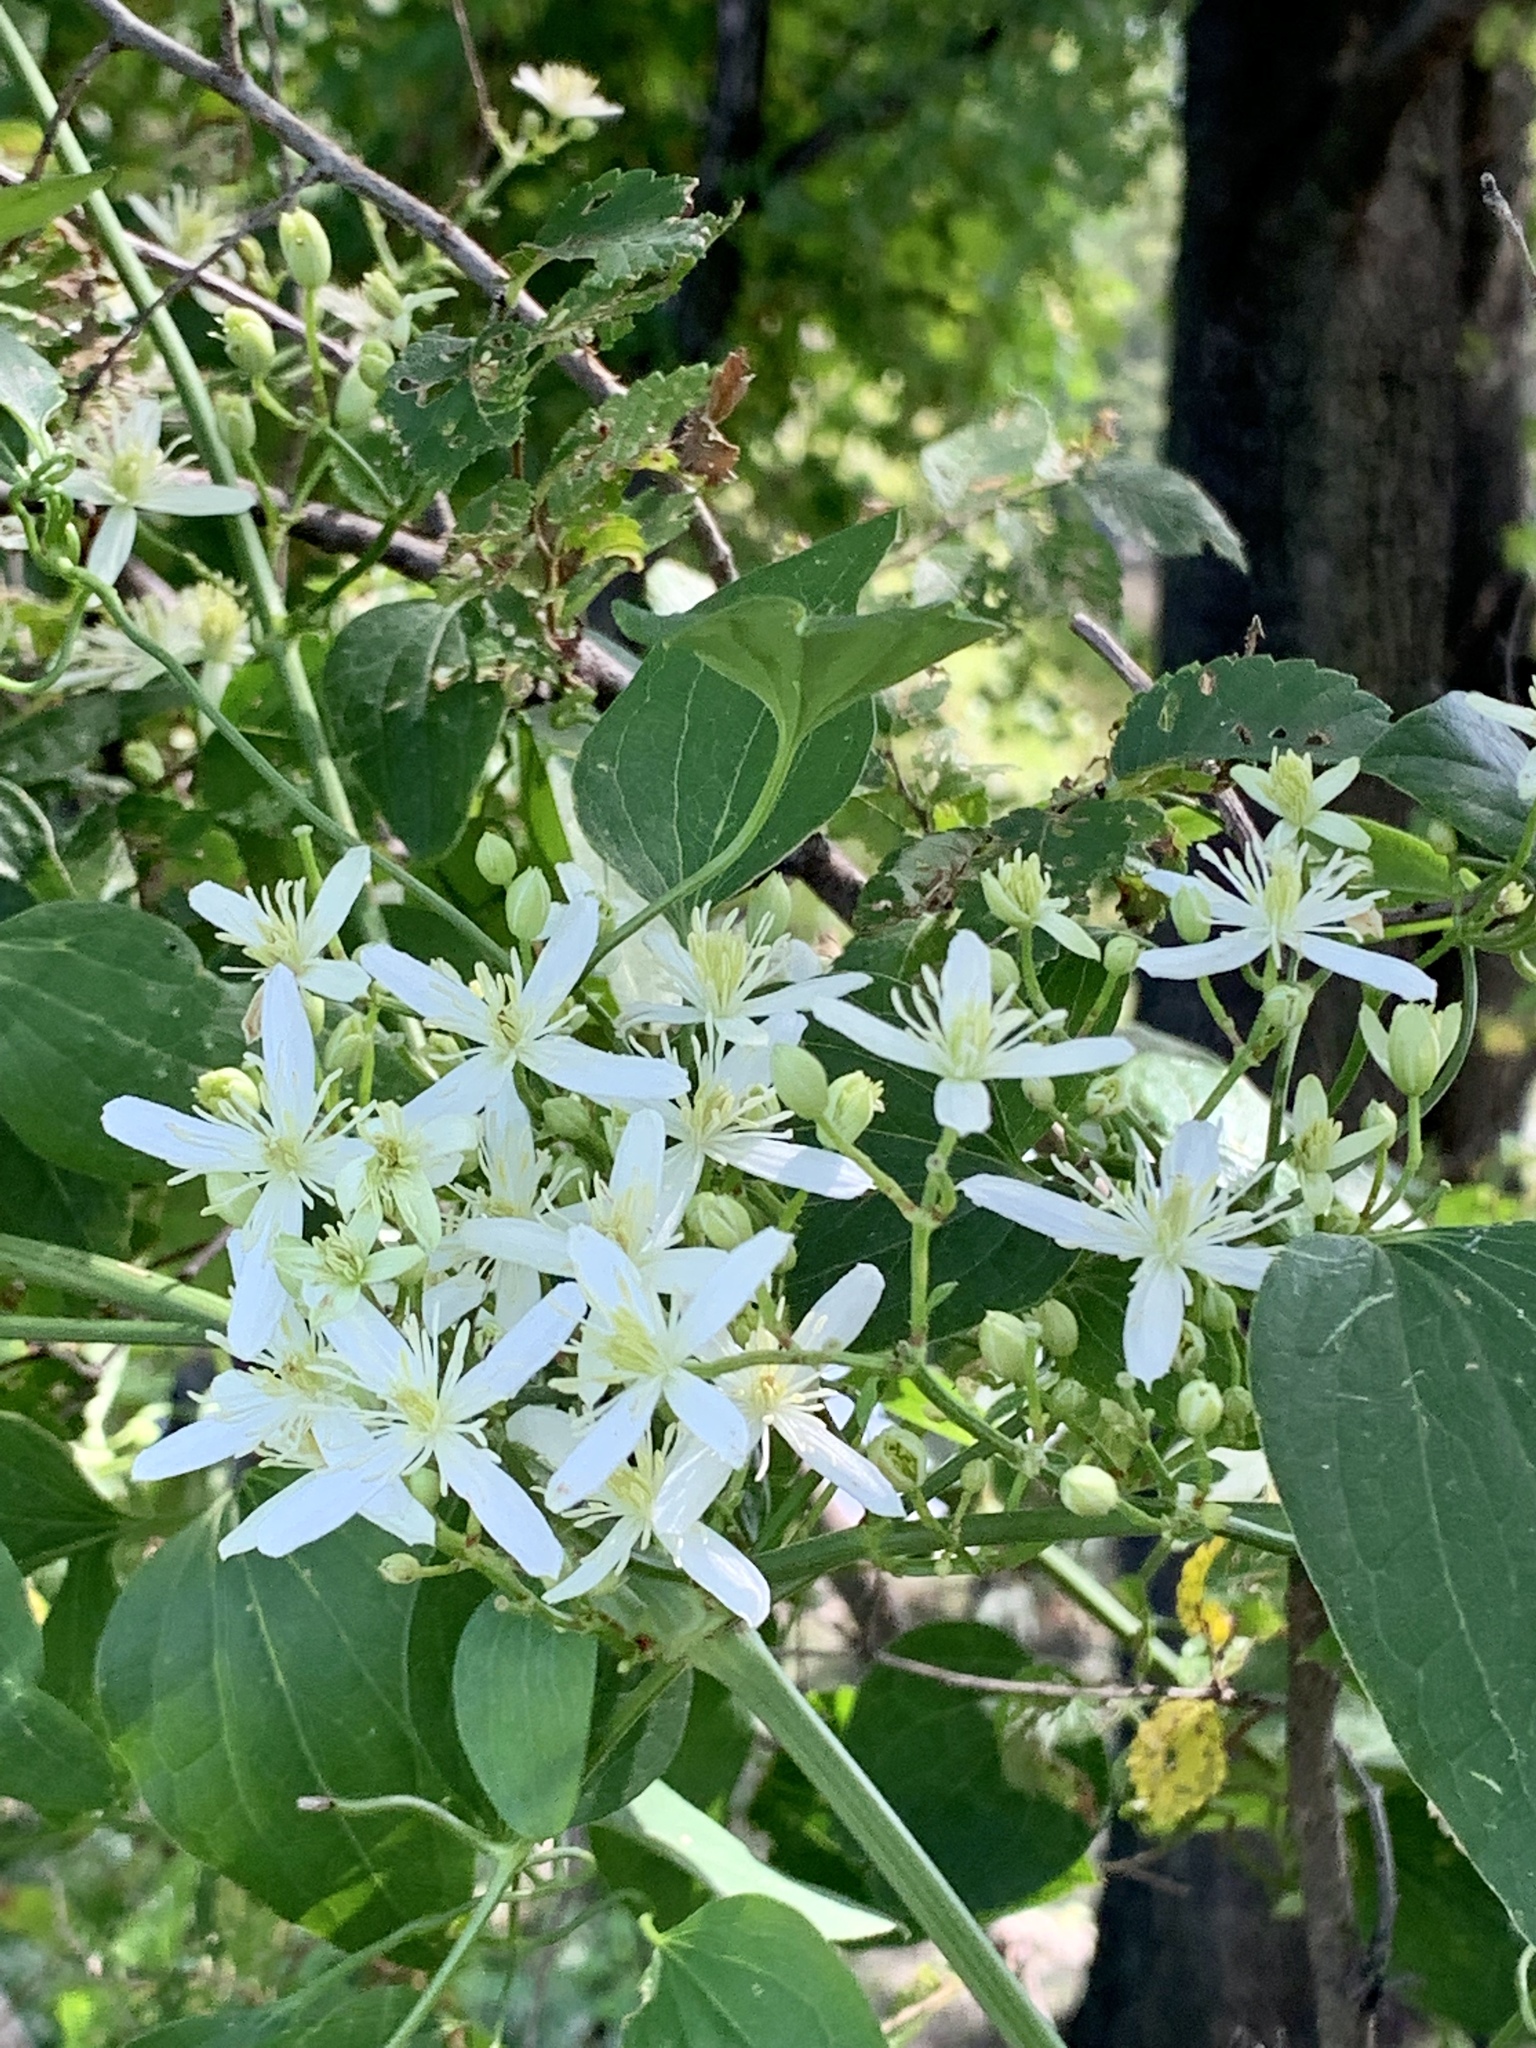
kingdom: Plantae
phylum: Tracheophyta
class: Magnoliopsida
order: Ranunculales
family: Ranunculaceae
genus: Clematis
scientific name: Clematis terniflora
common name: Sweet autumn clematis
